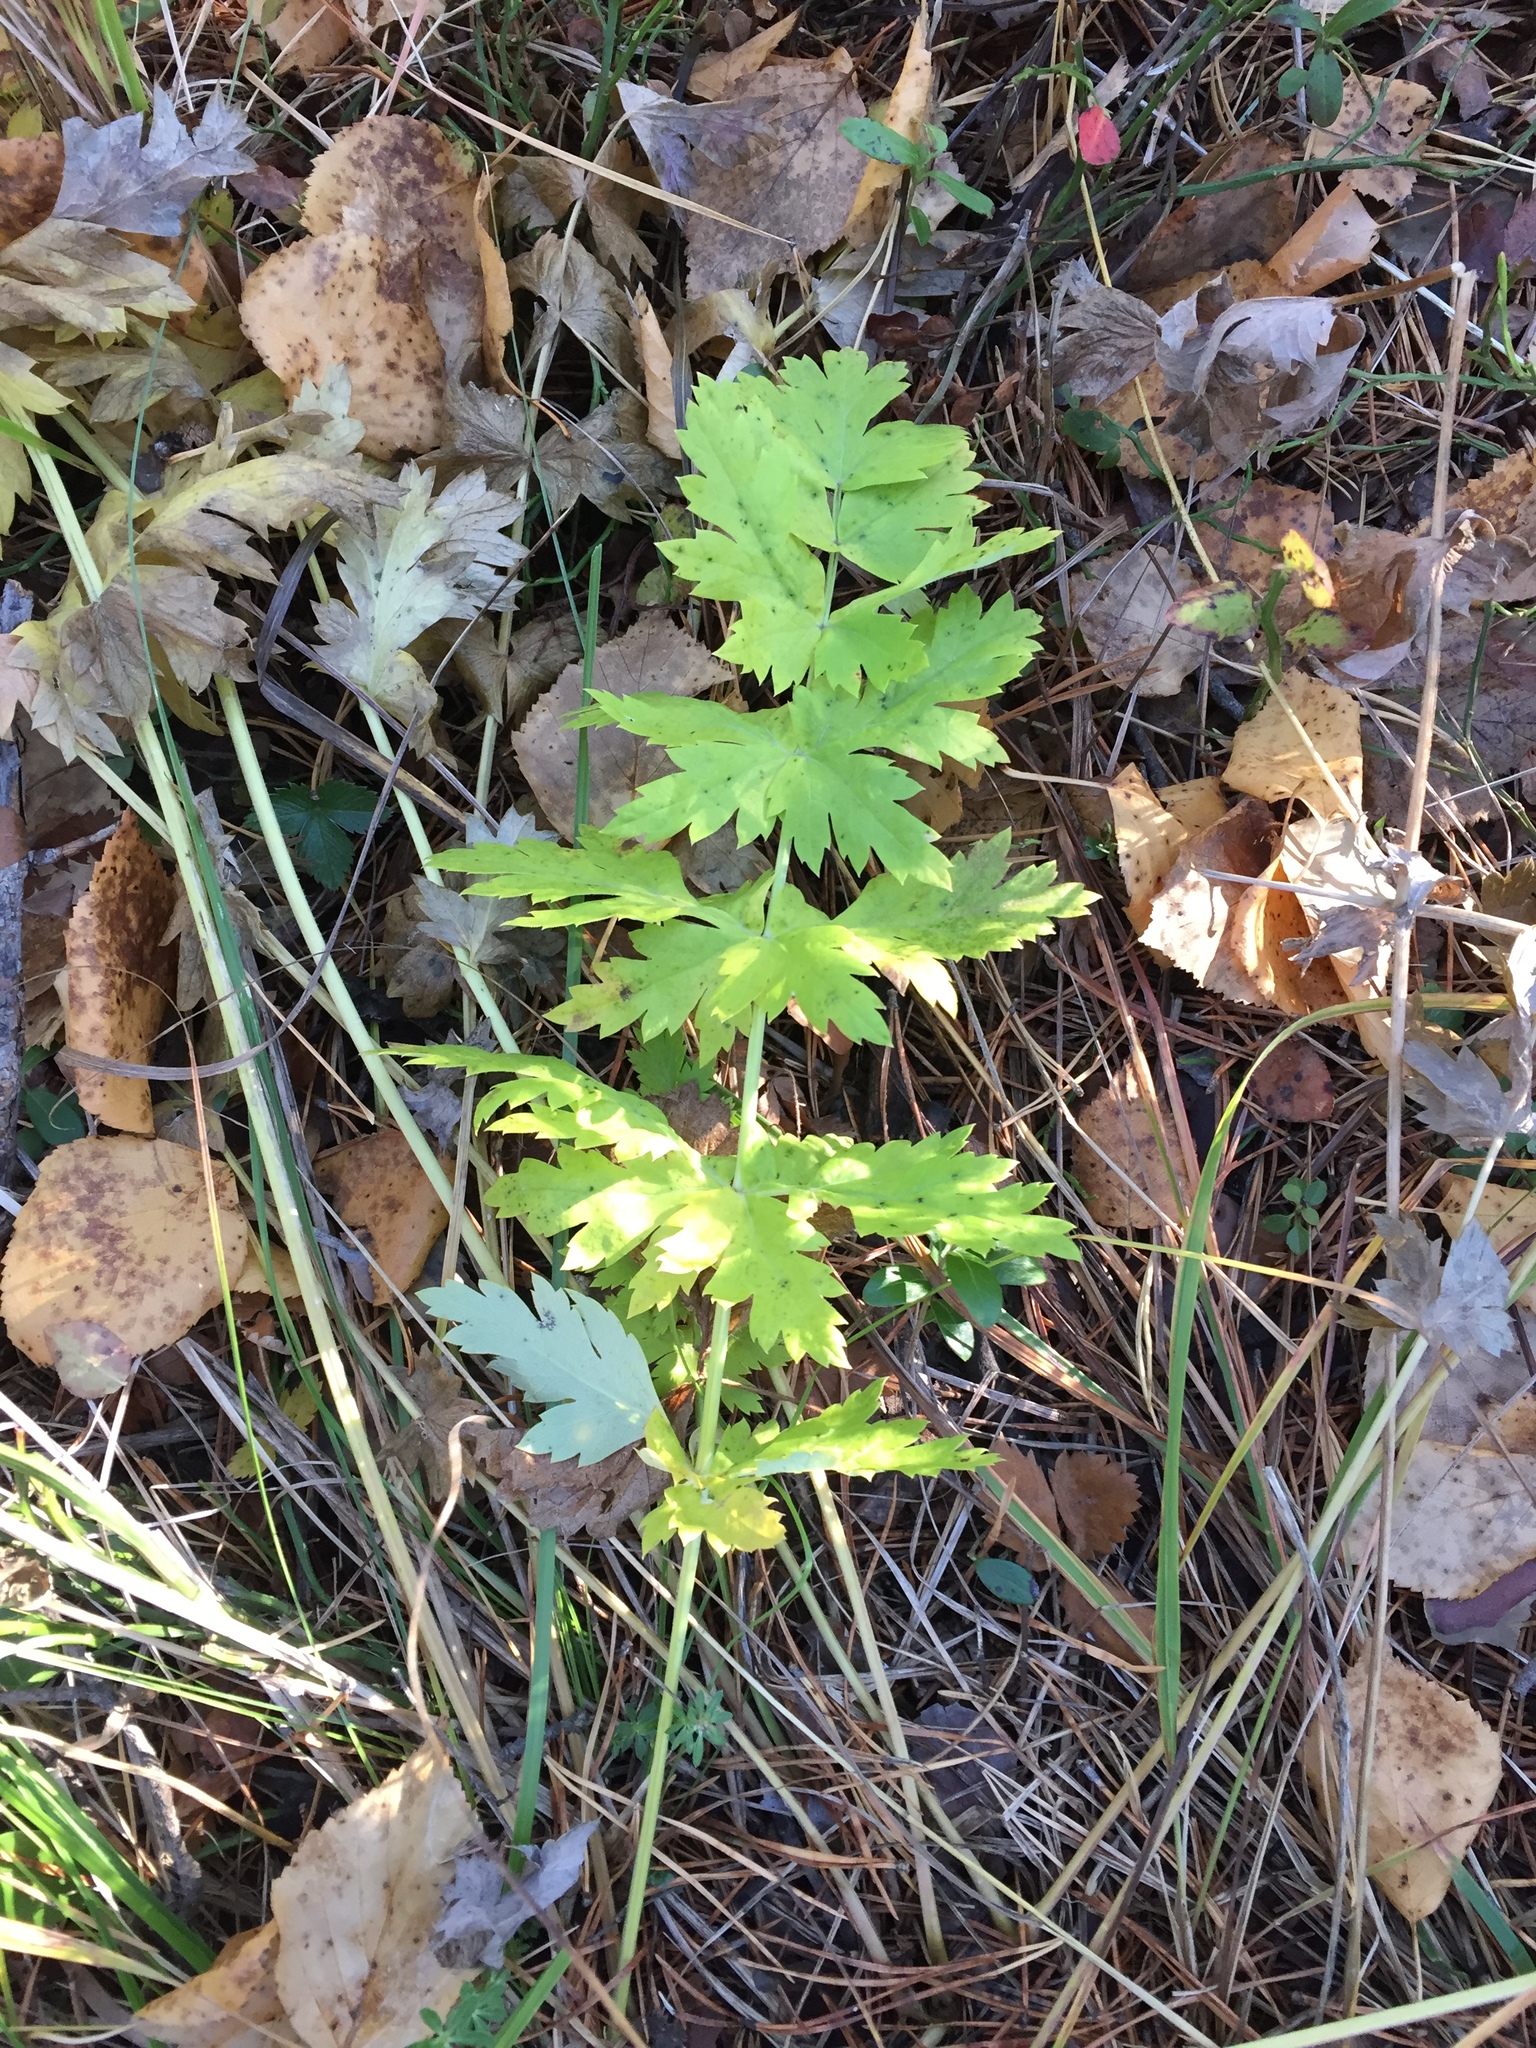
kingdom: Plantae
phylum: Tracheophyta
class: Magnoliopsida
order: Apiales
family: Apiaceae
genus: Seseli
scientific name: Seseli krylovii
